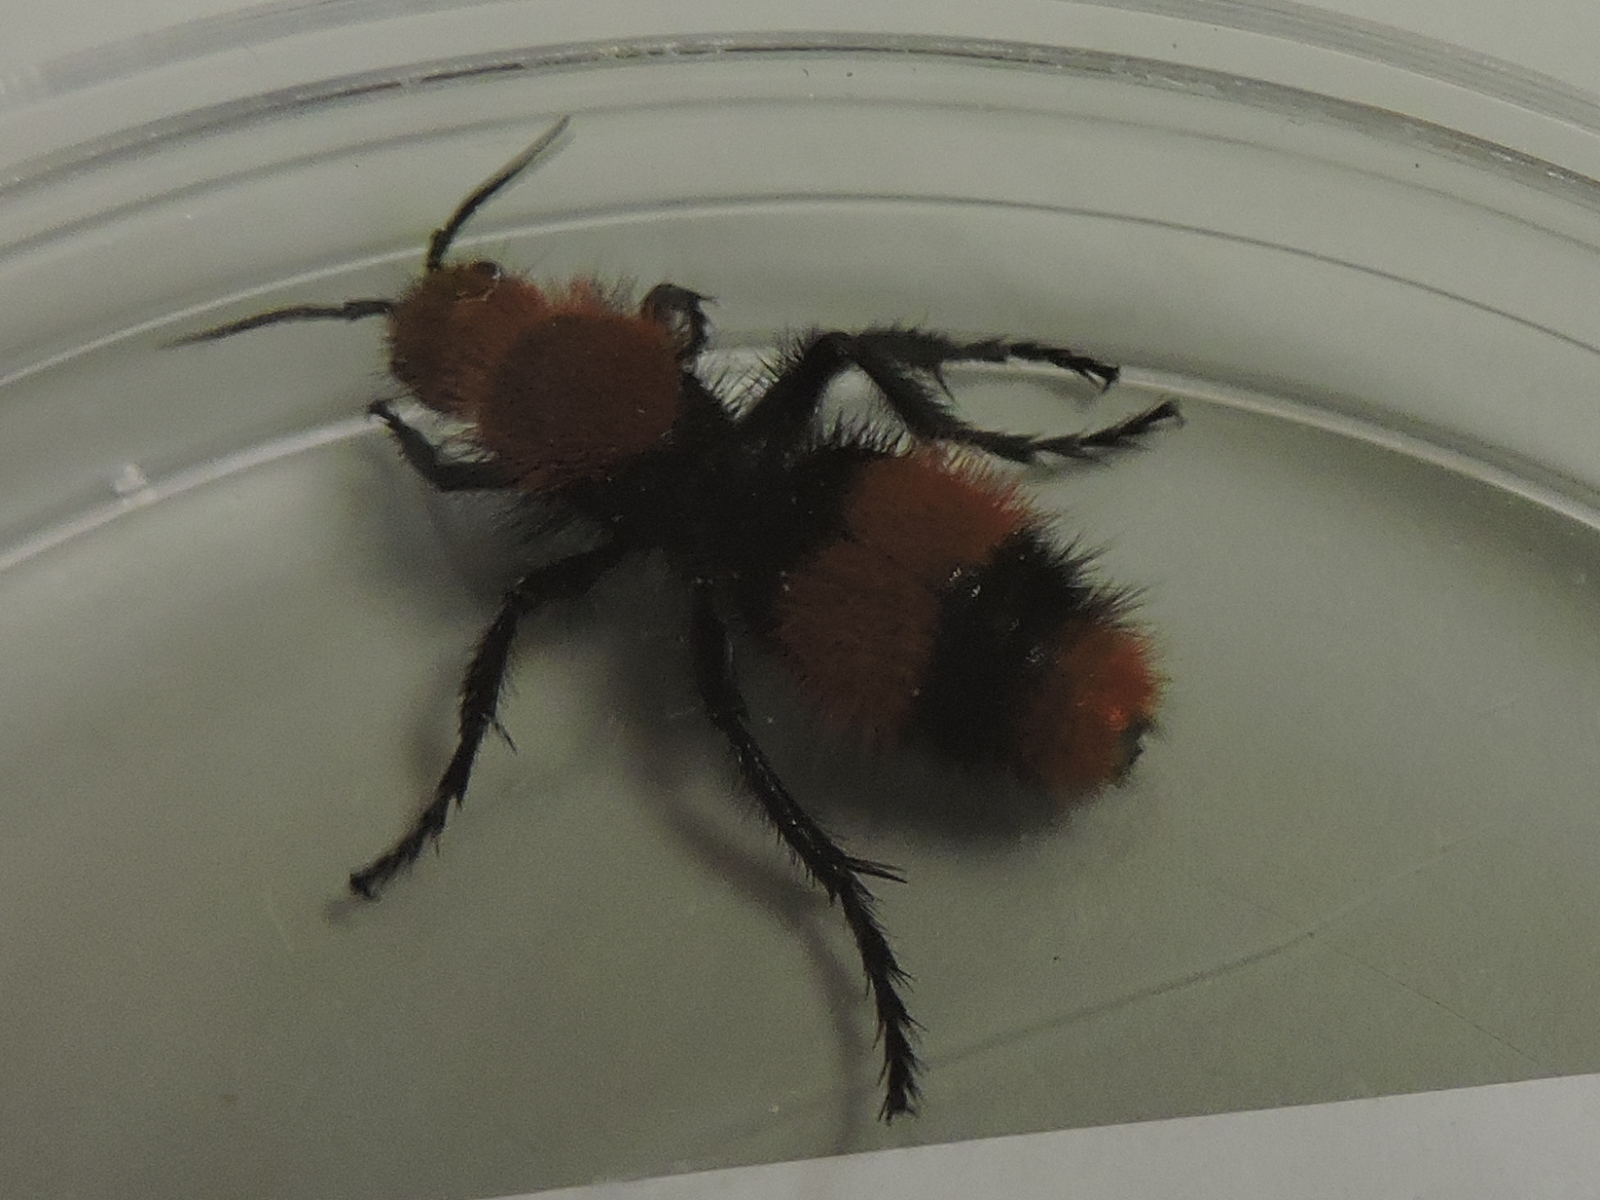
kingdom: Animalia
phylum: Arthropoda
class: Insecta
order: Hymenoptera
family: Mutillidae
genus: Dasymutilla
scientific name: Dasymutilla occidentalis
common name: Common eastern velvet ant
